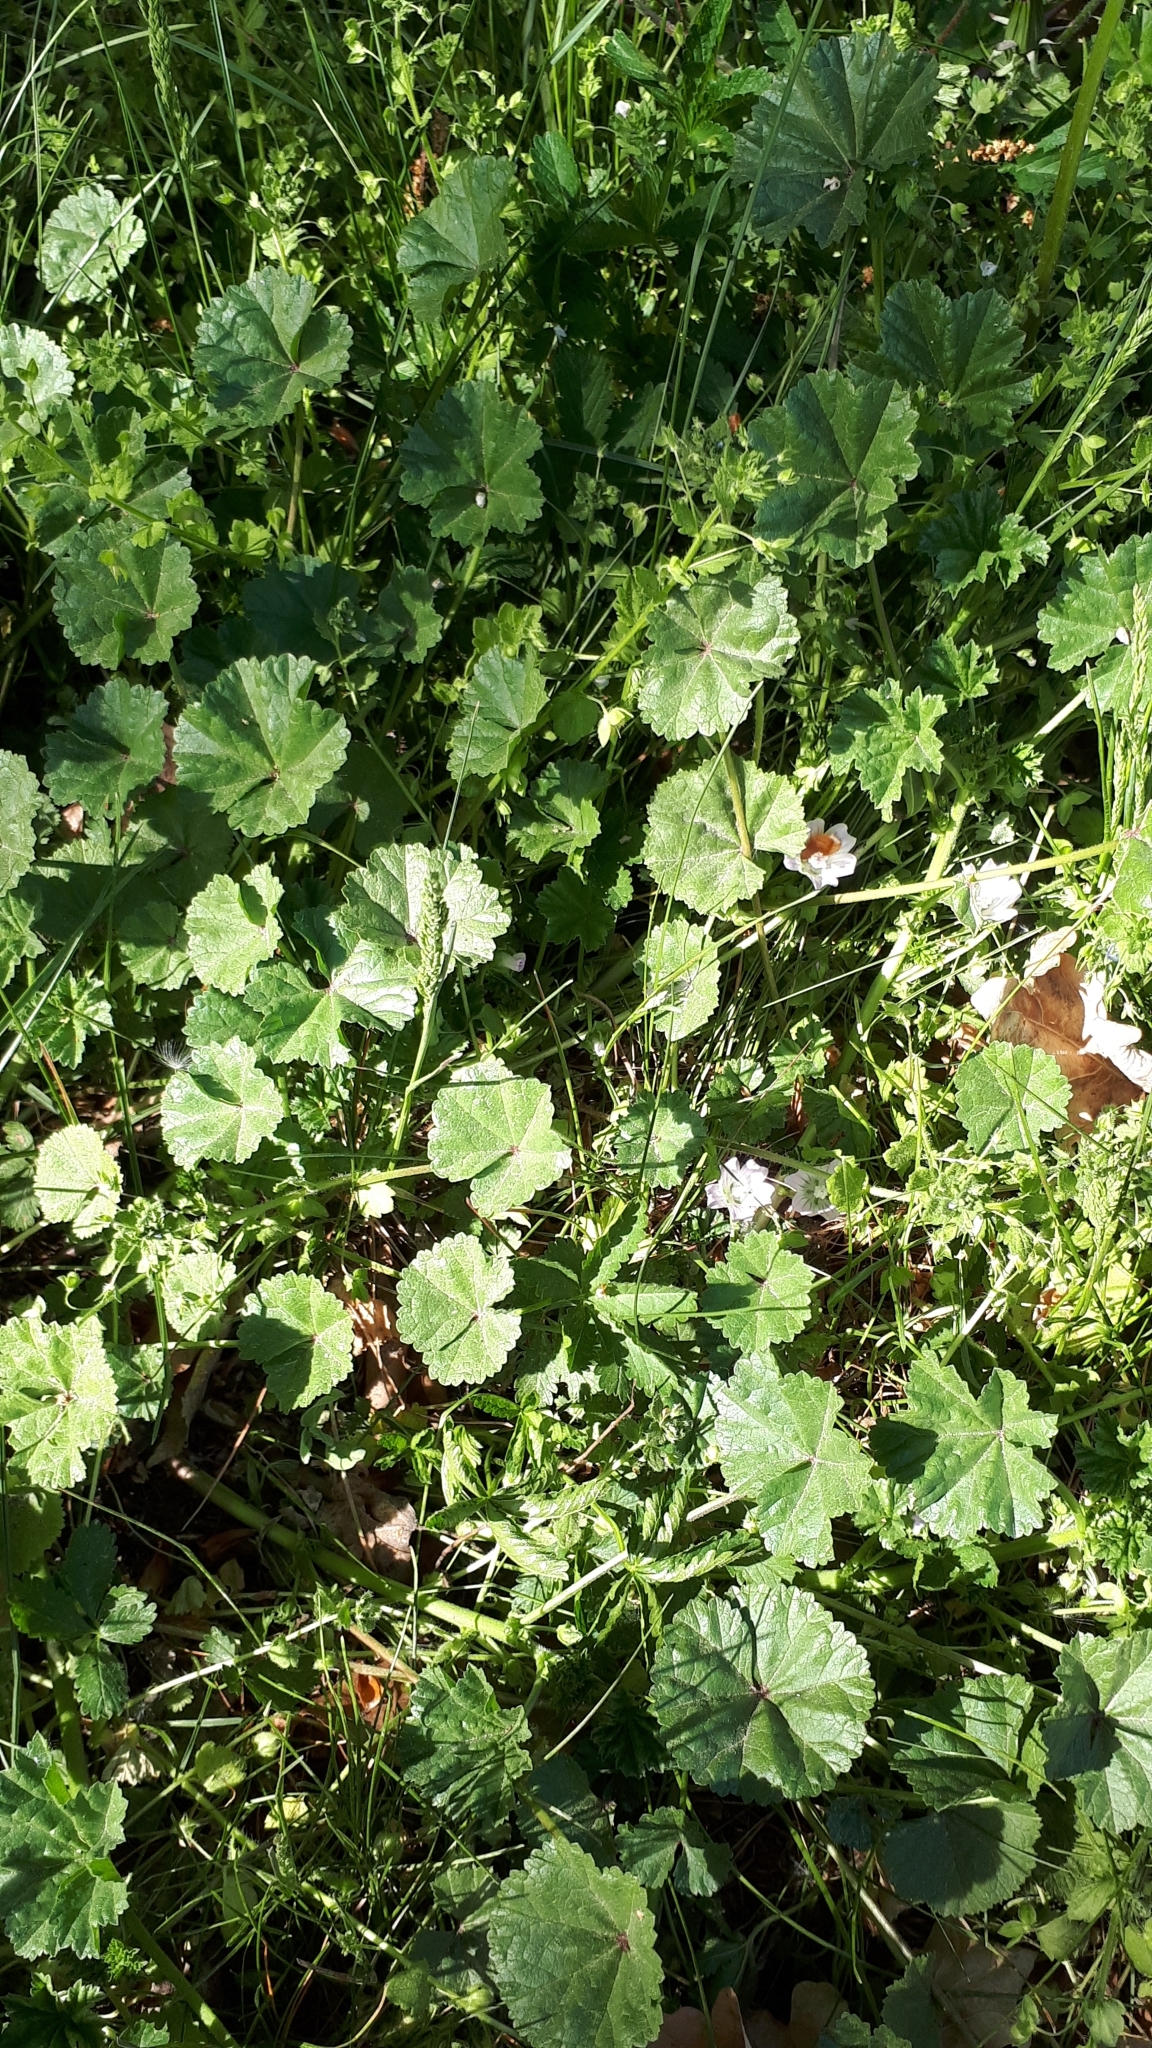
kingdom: Plantae
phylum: Tracheophyta
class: Magnoliopsida
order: Malvales
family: Malvaceae
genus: Malva
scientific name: Malva neglecta
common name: Common mallow
